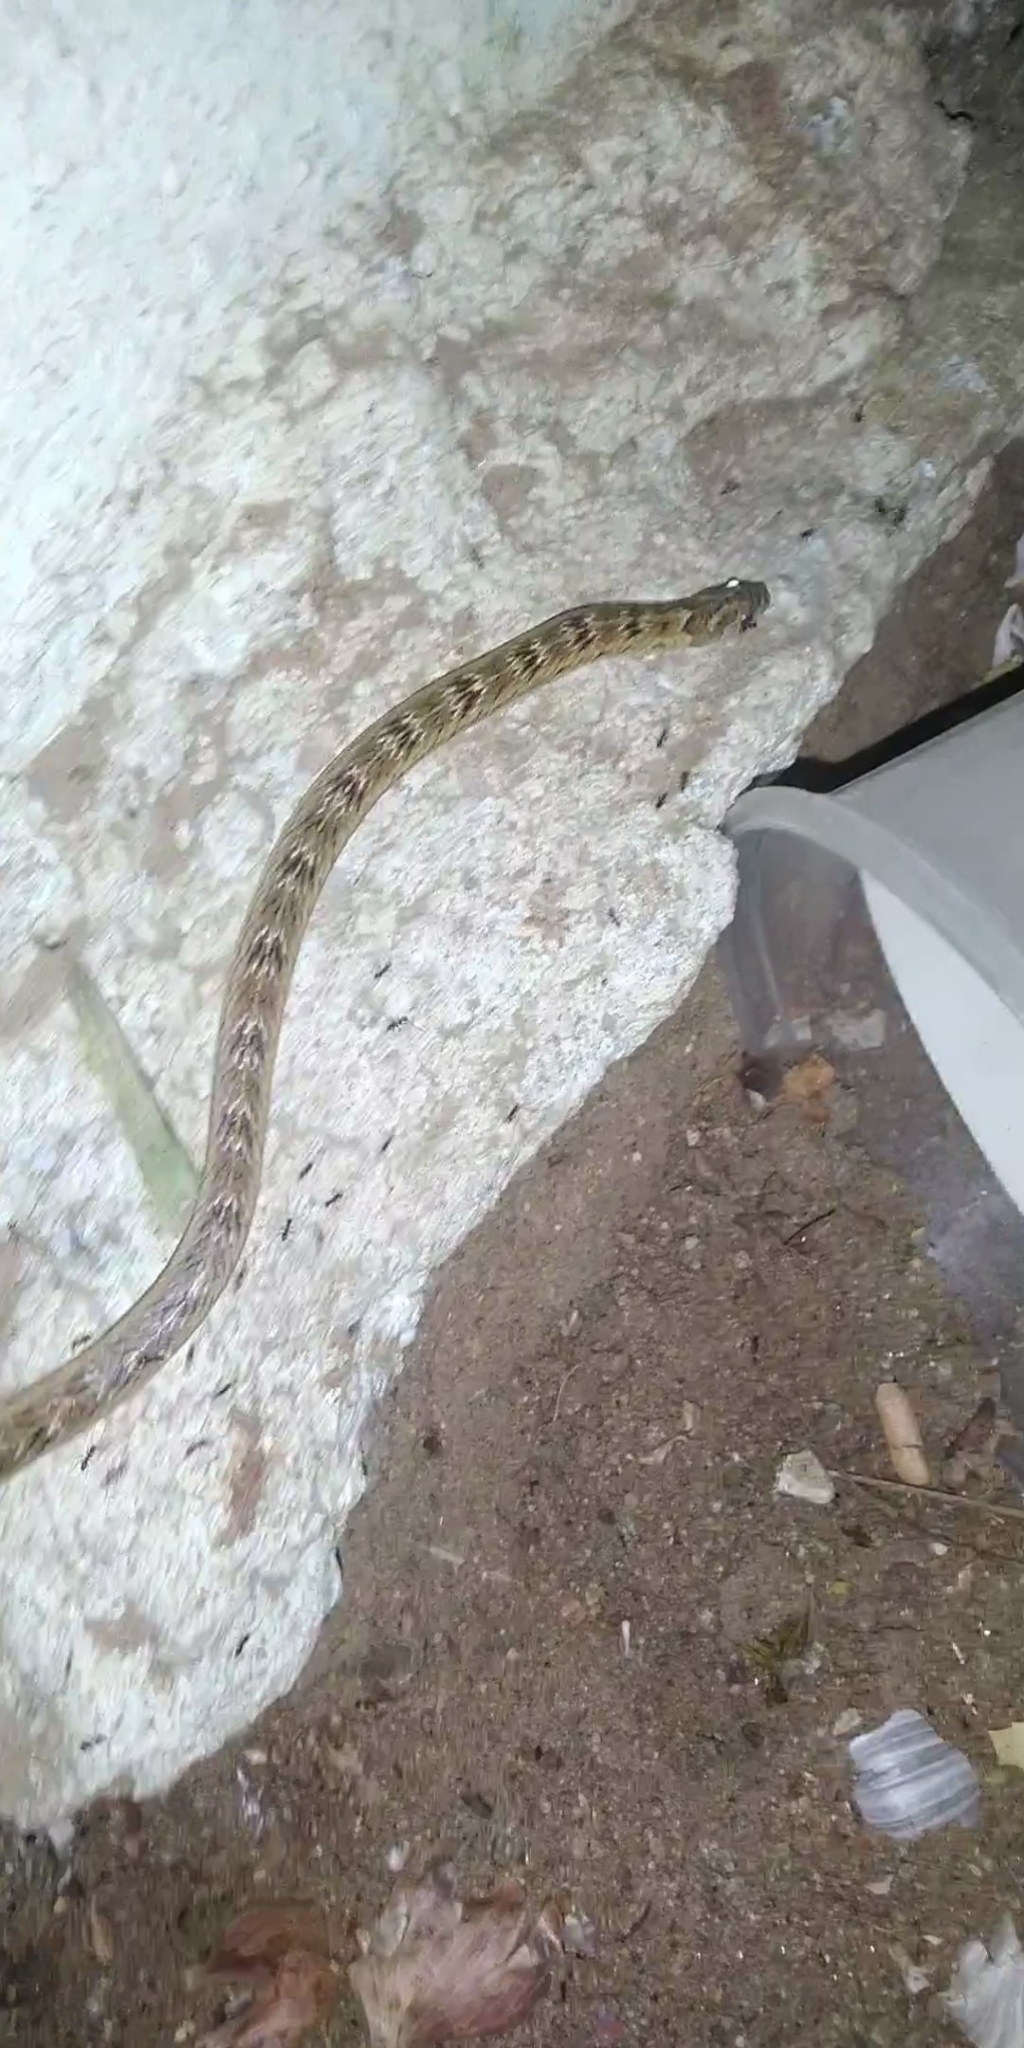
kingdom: Animalia
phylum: Chordata
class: Squamata
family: Colubridae
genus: Oligodon
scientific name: Oligodon taeniolatus
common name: Loos snake
